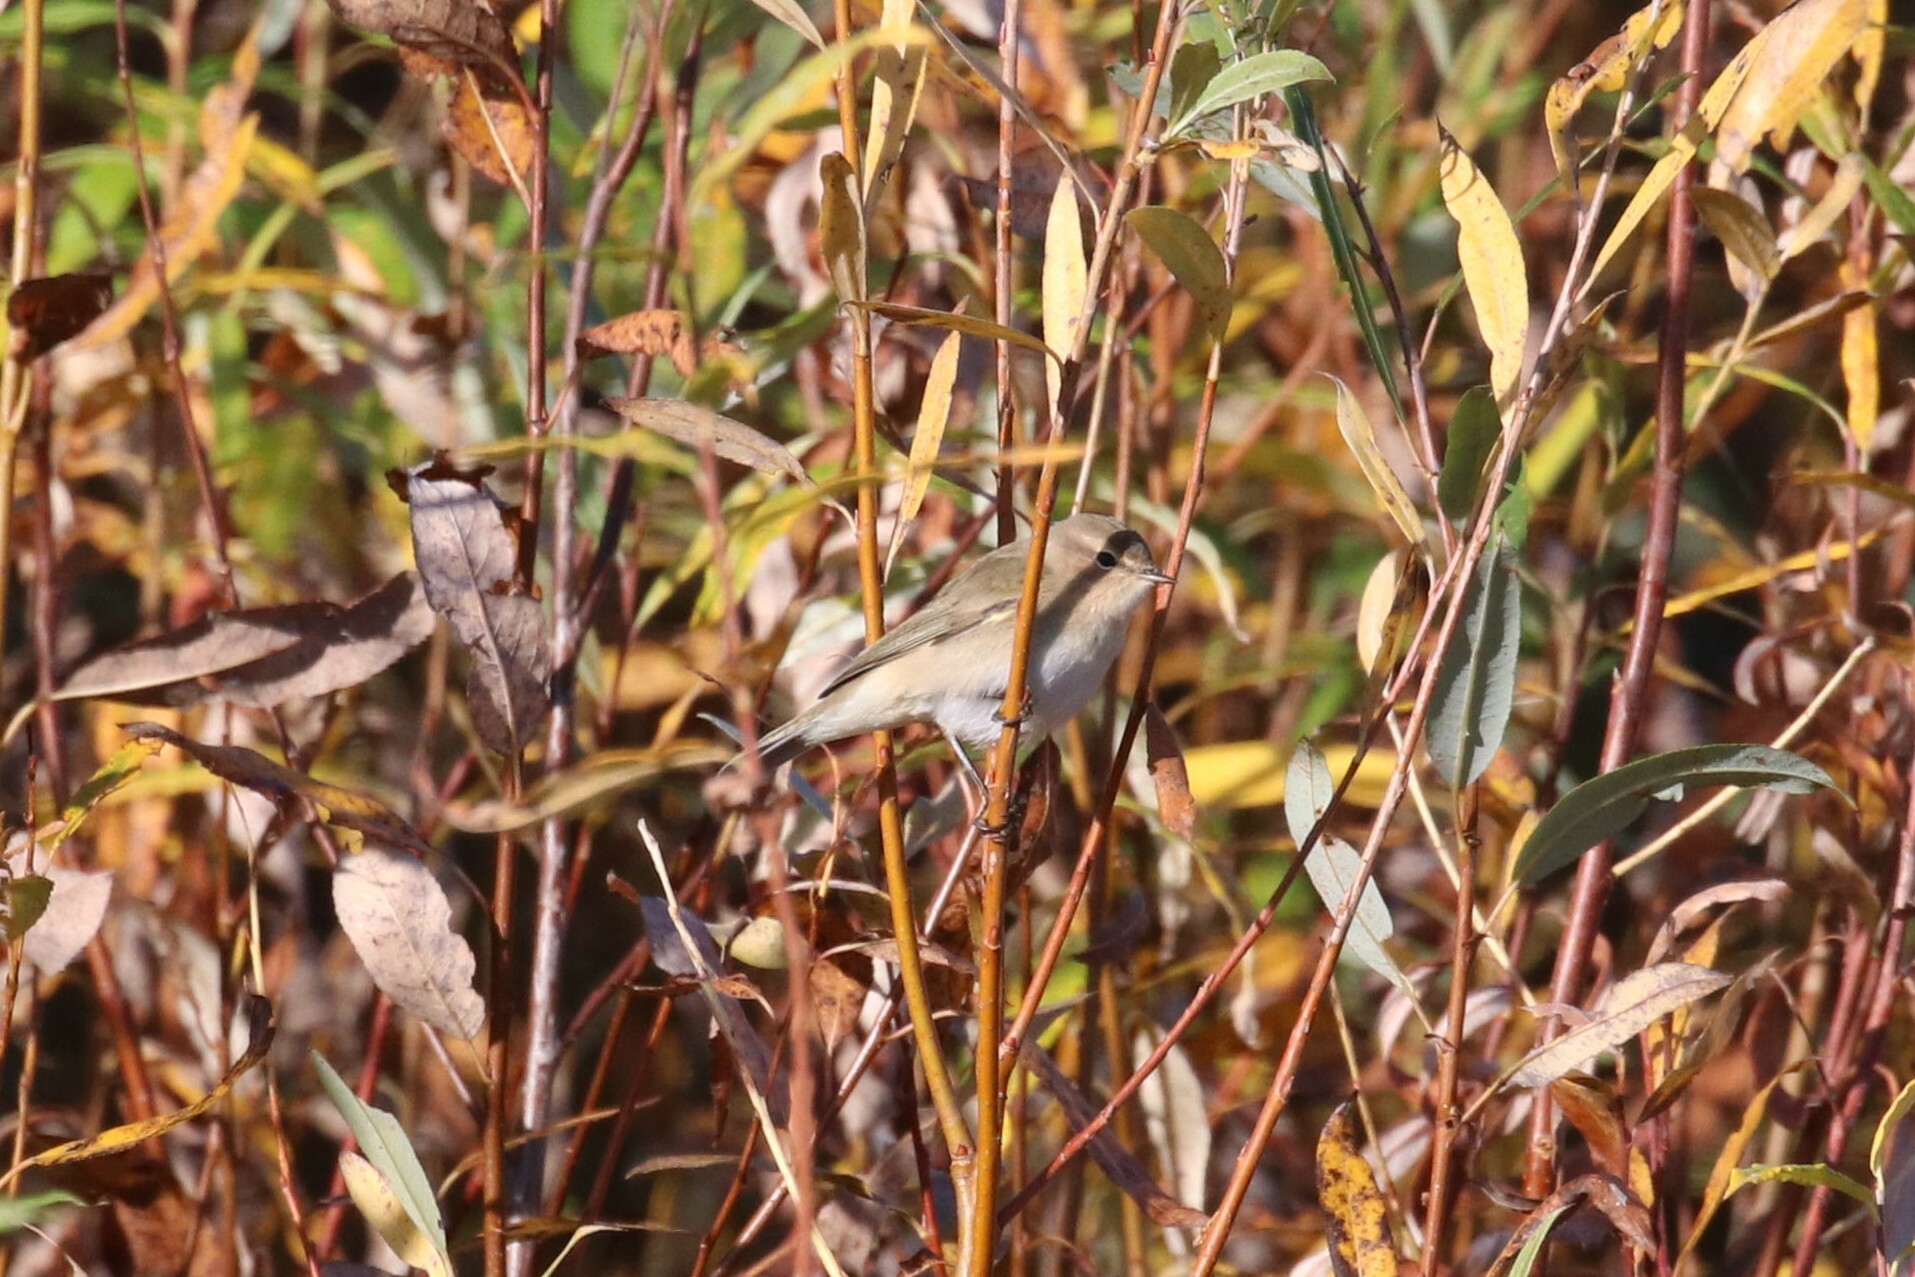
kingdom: Animalia
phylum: Chordata
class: Aves
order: Passeriformes
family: Phylloscopidae
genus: Phylloscopus
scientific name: Phylloscopus collybita
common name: Common chiffchaff
